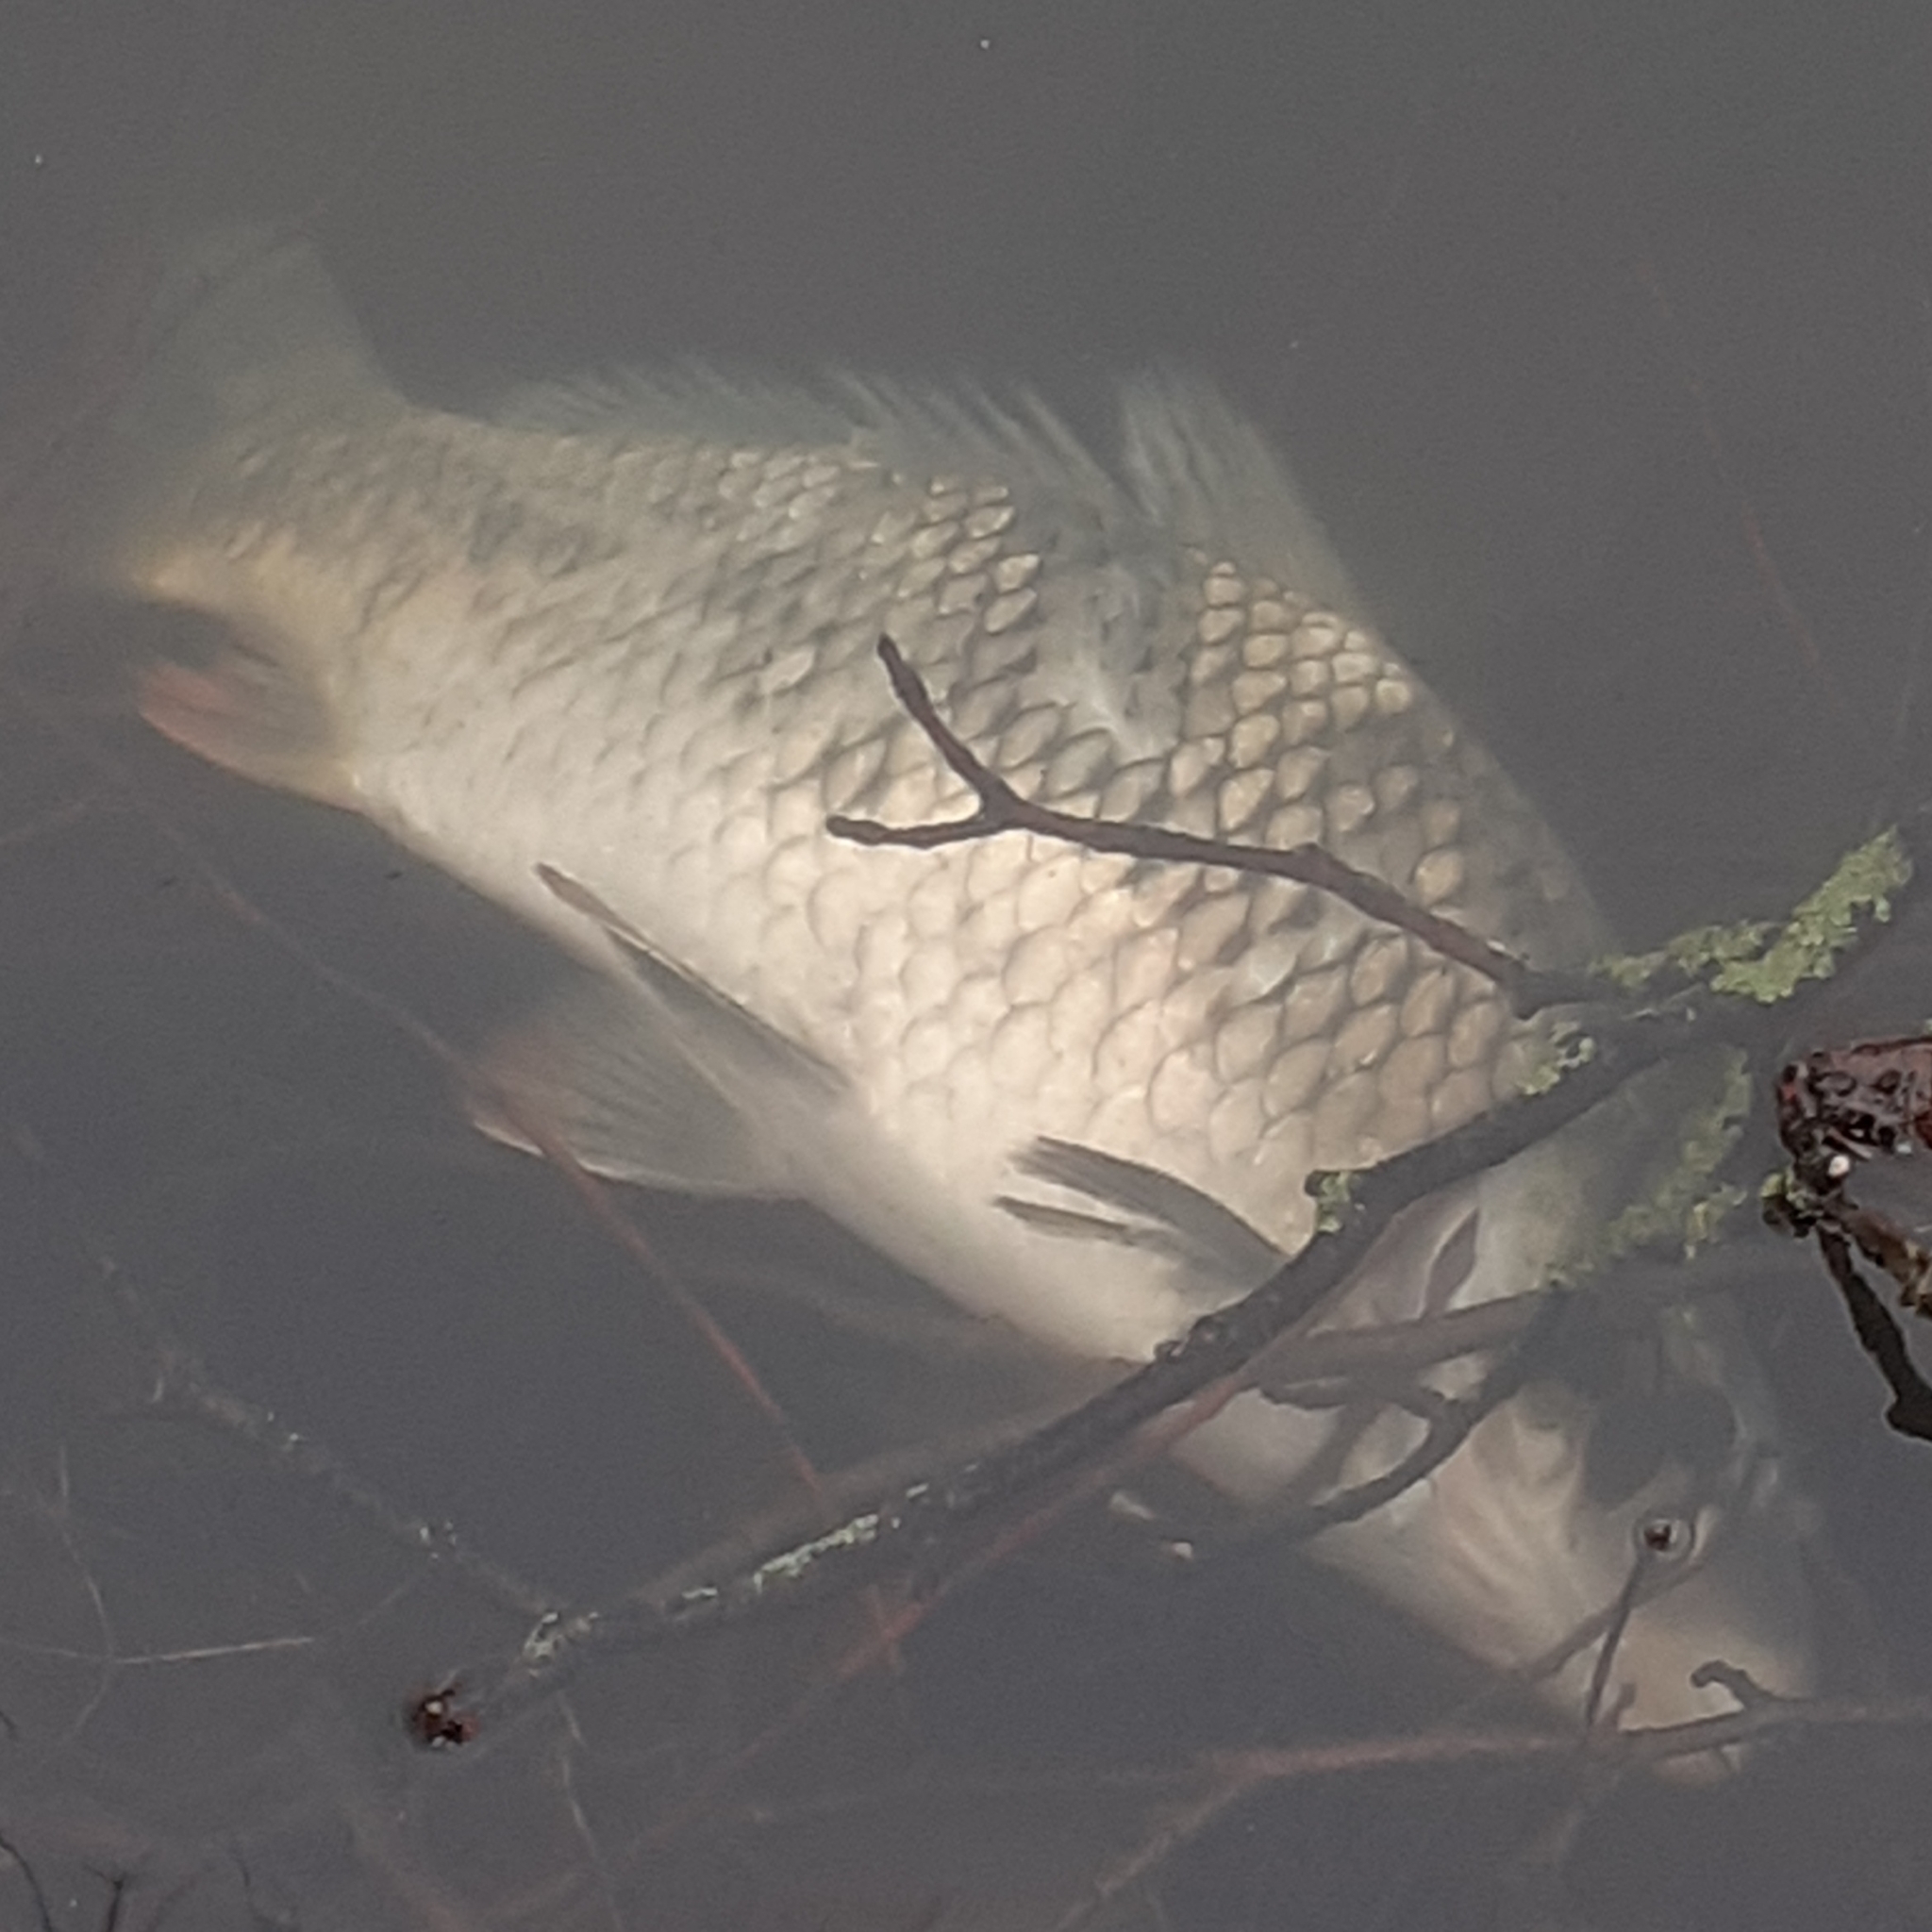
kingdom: Animalia
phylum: Chordata
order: Cypriniformes
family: Cyprinidae
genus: Cyprinus
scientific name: Cyprinus carpio
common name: Common carp
